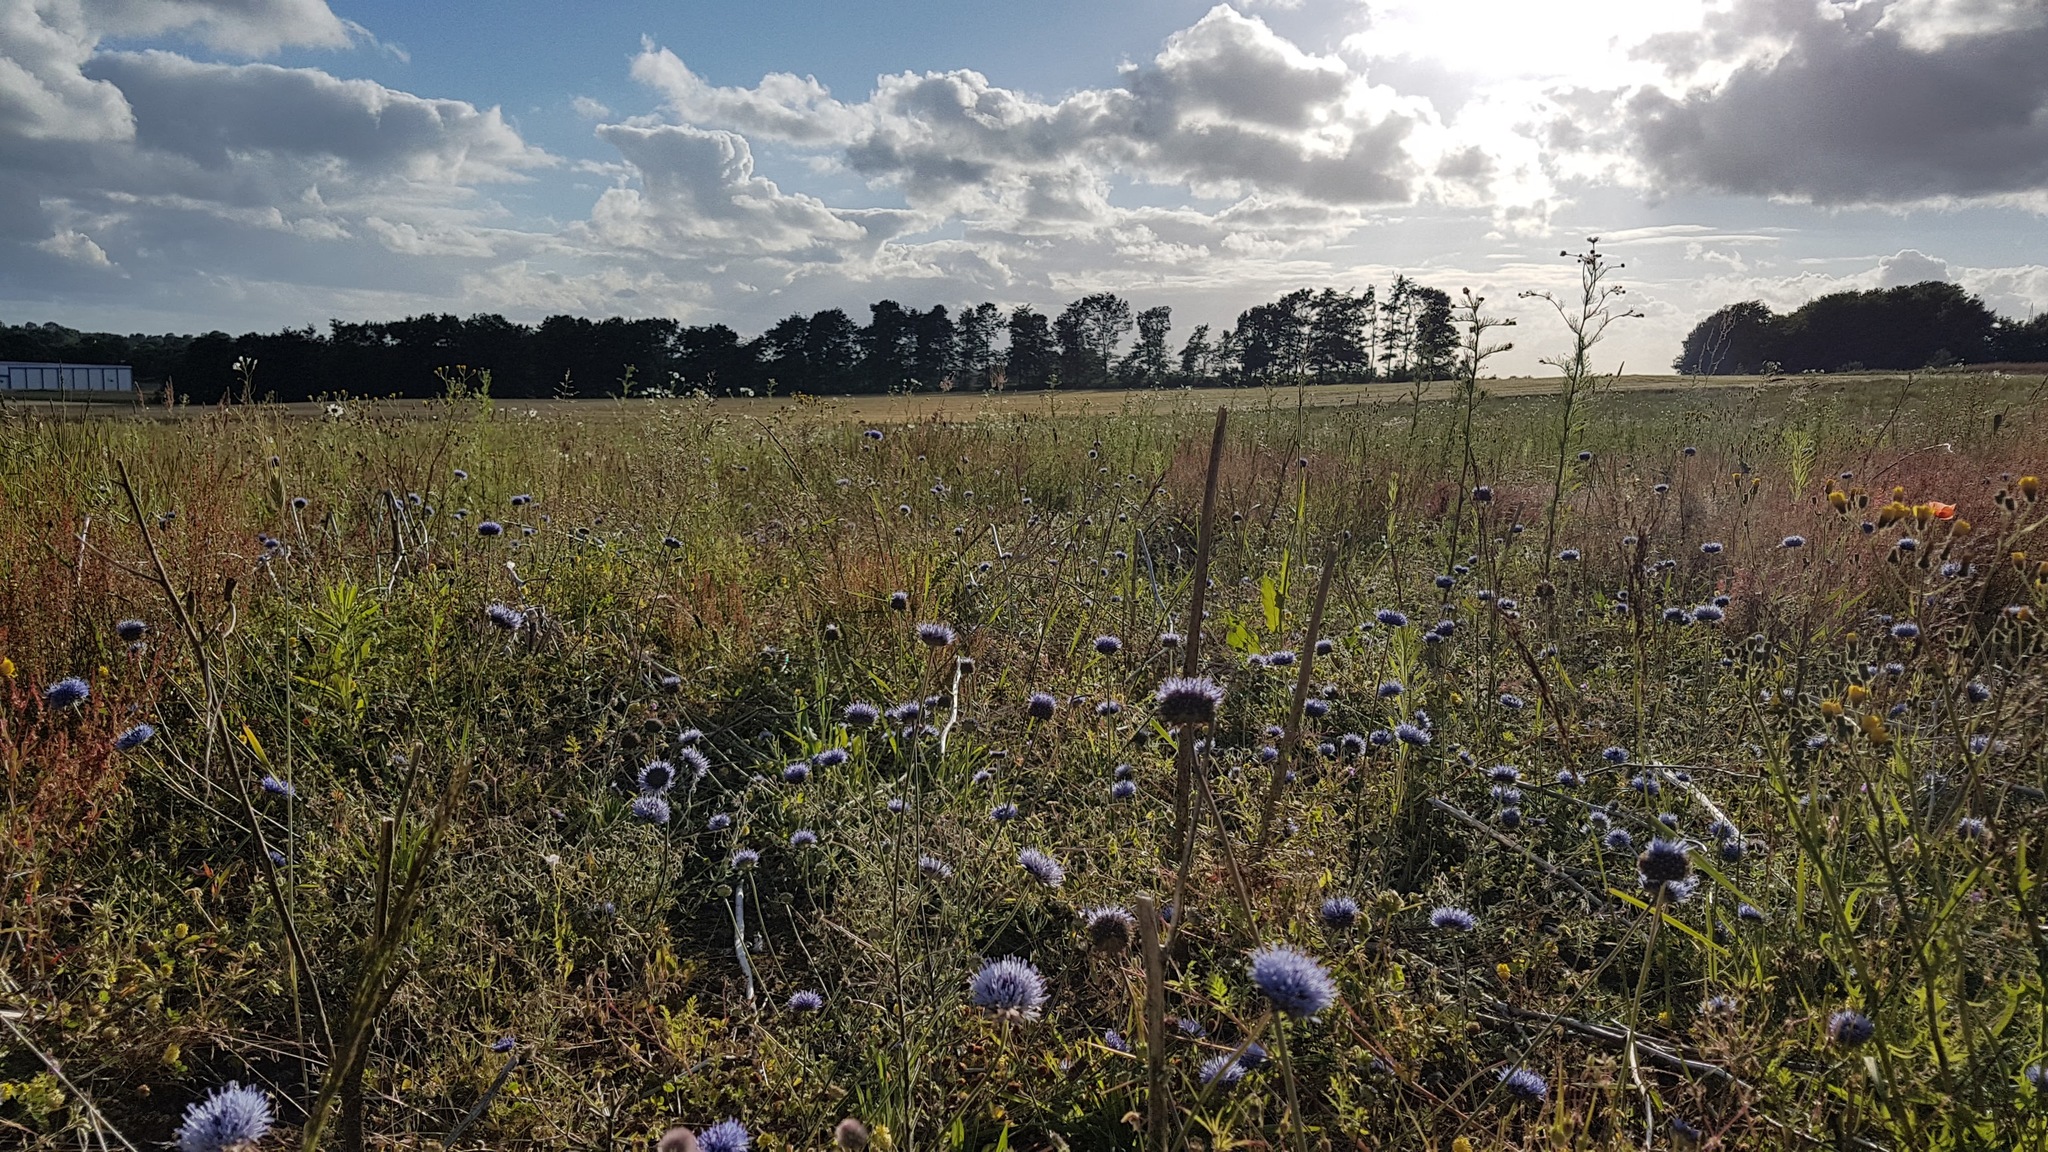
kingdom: Plantae
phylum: Tracheophyta
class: Magnoliopsida
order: Asterales
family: Campanulaceae
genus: Jasione
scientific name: Jasione montana
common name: Sheep's-bit
